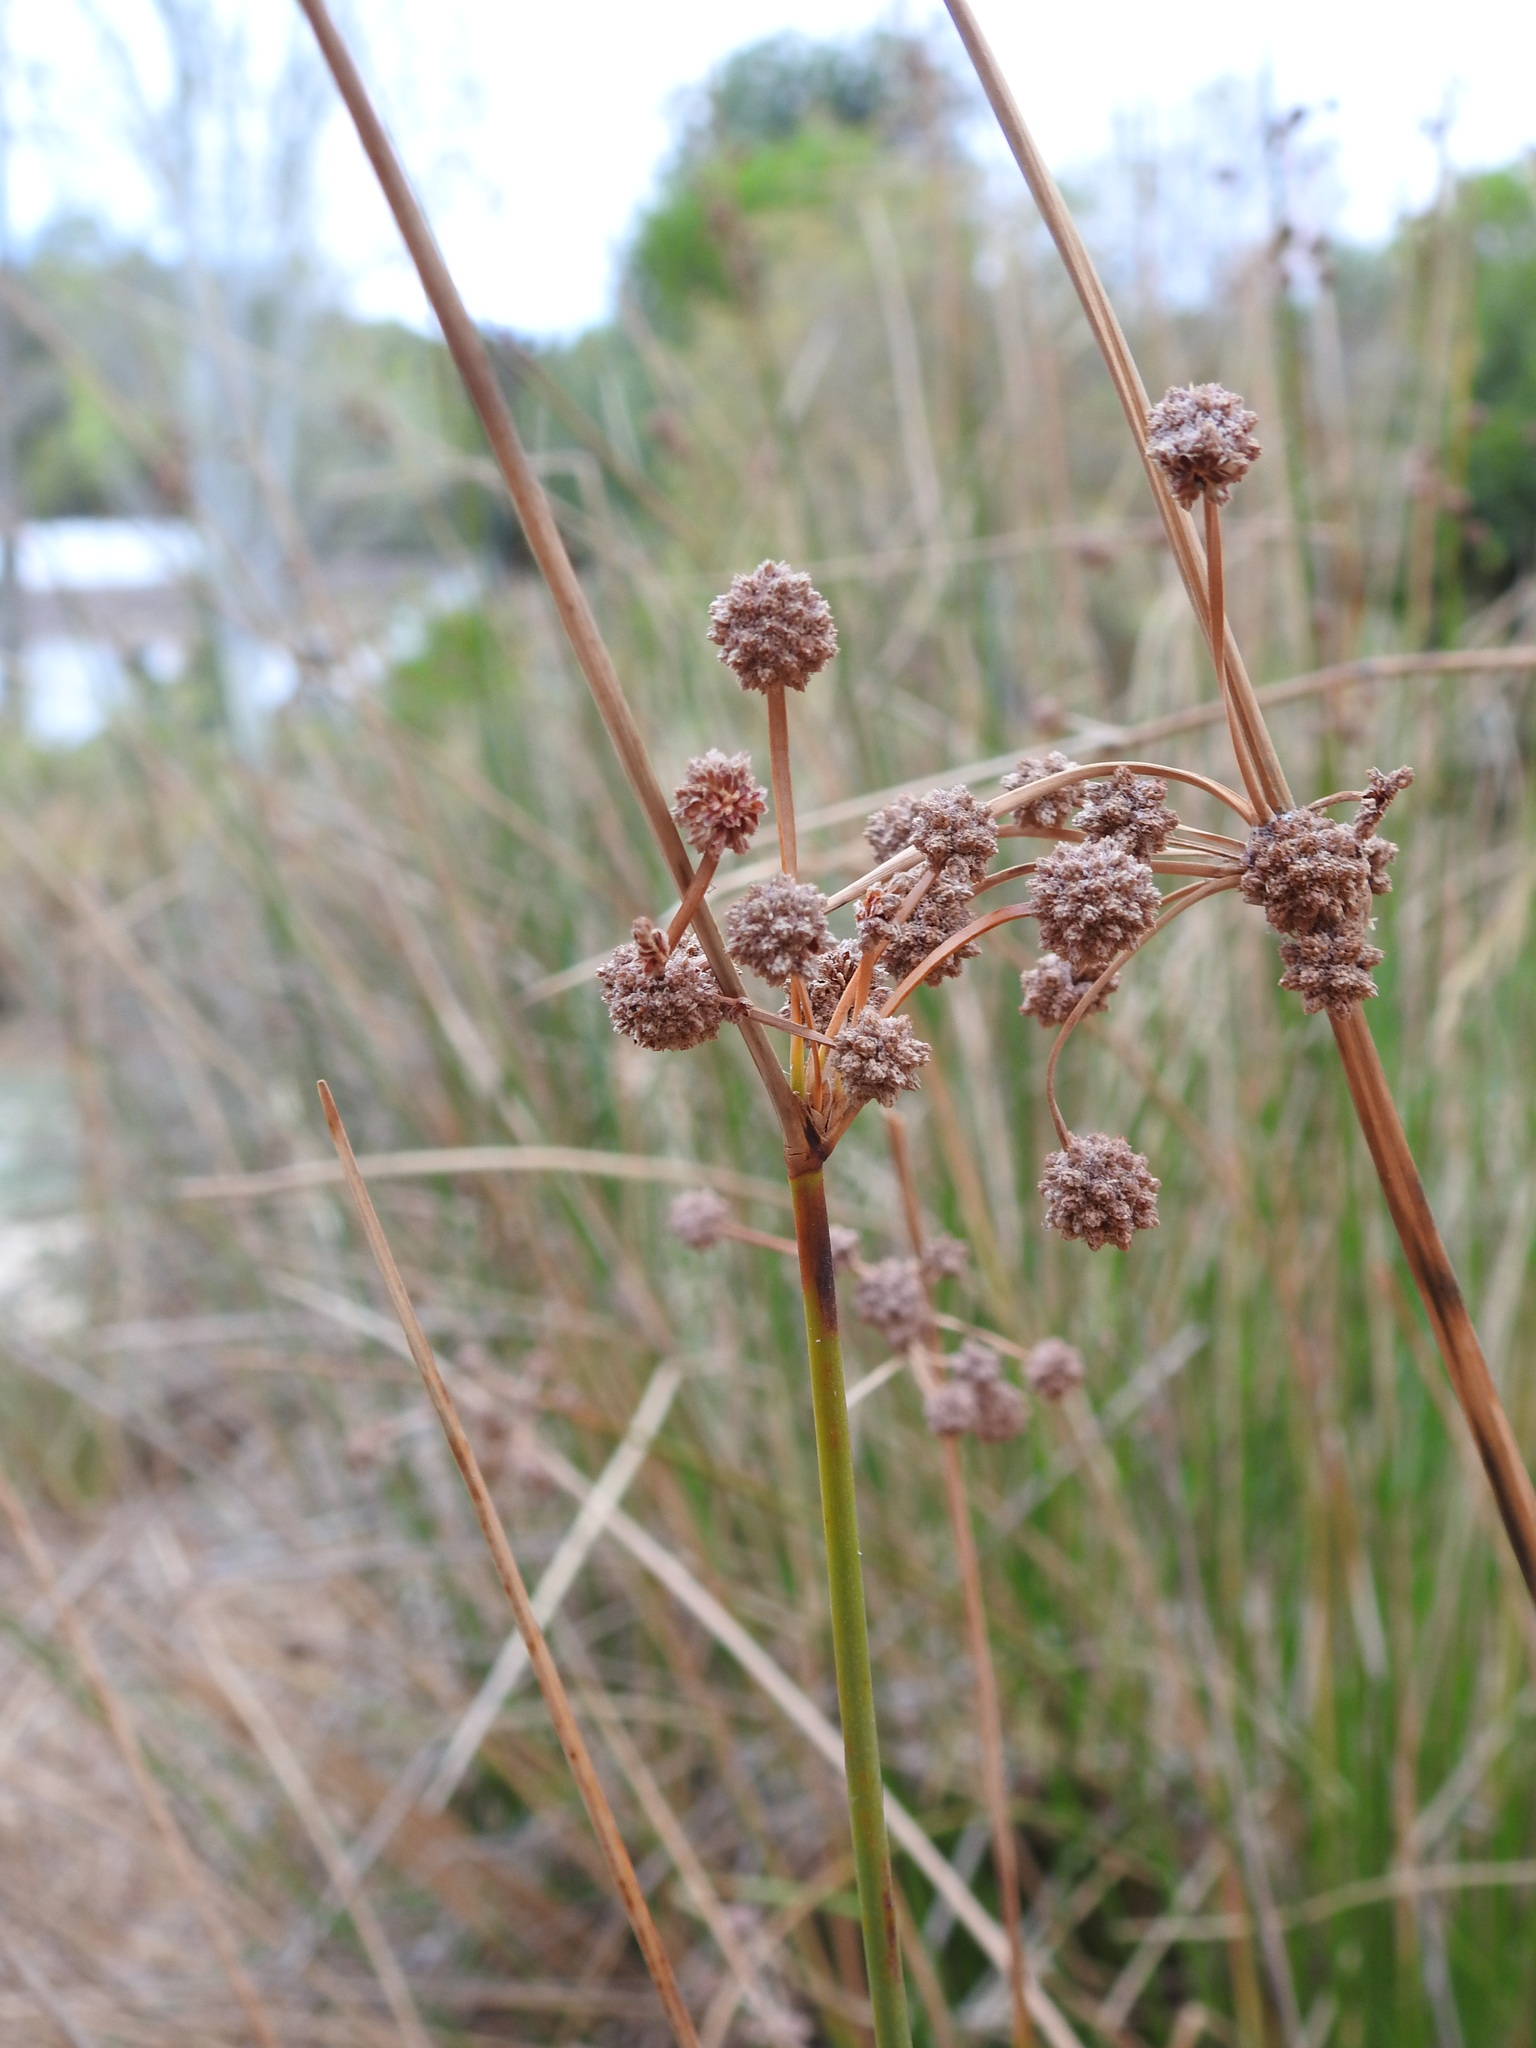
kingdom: Plantae
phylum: Tracheophyta
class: Liliopsida
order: Poales
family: Cyperaceae
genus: Scirpoides
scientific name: Scirpoides holoschoenus
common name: Round-headed club-rush
